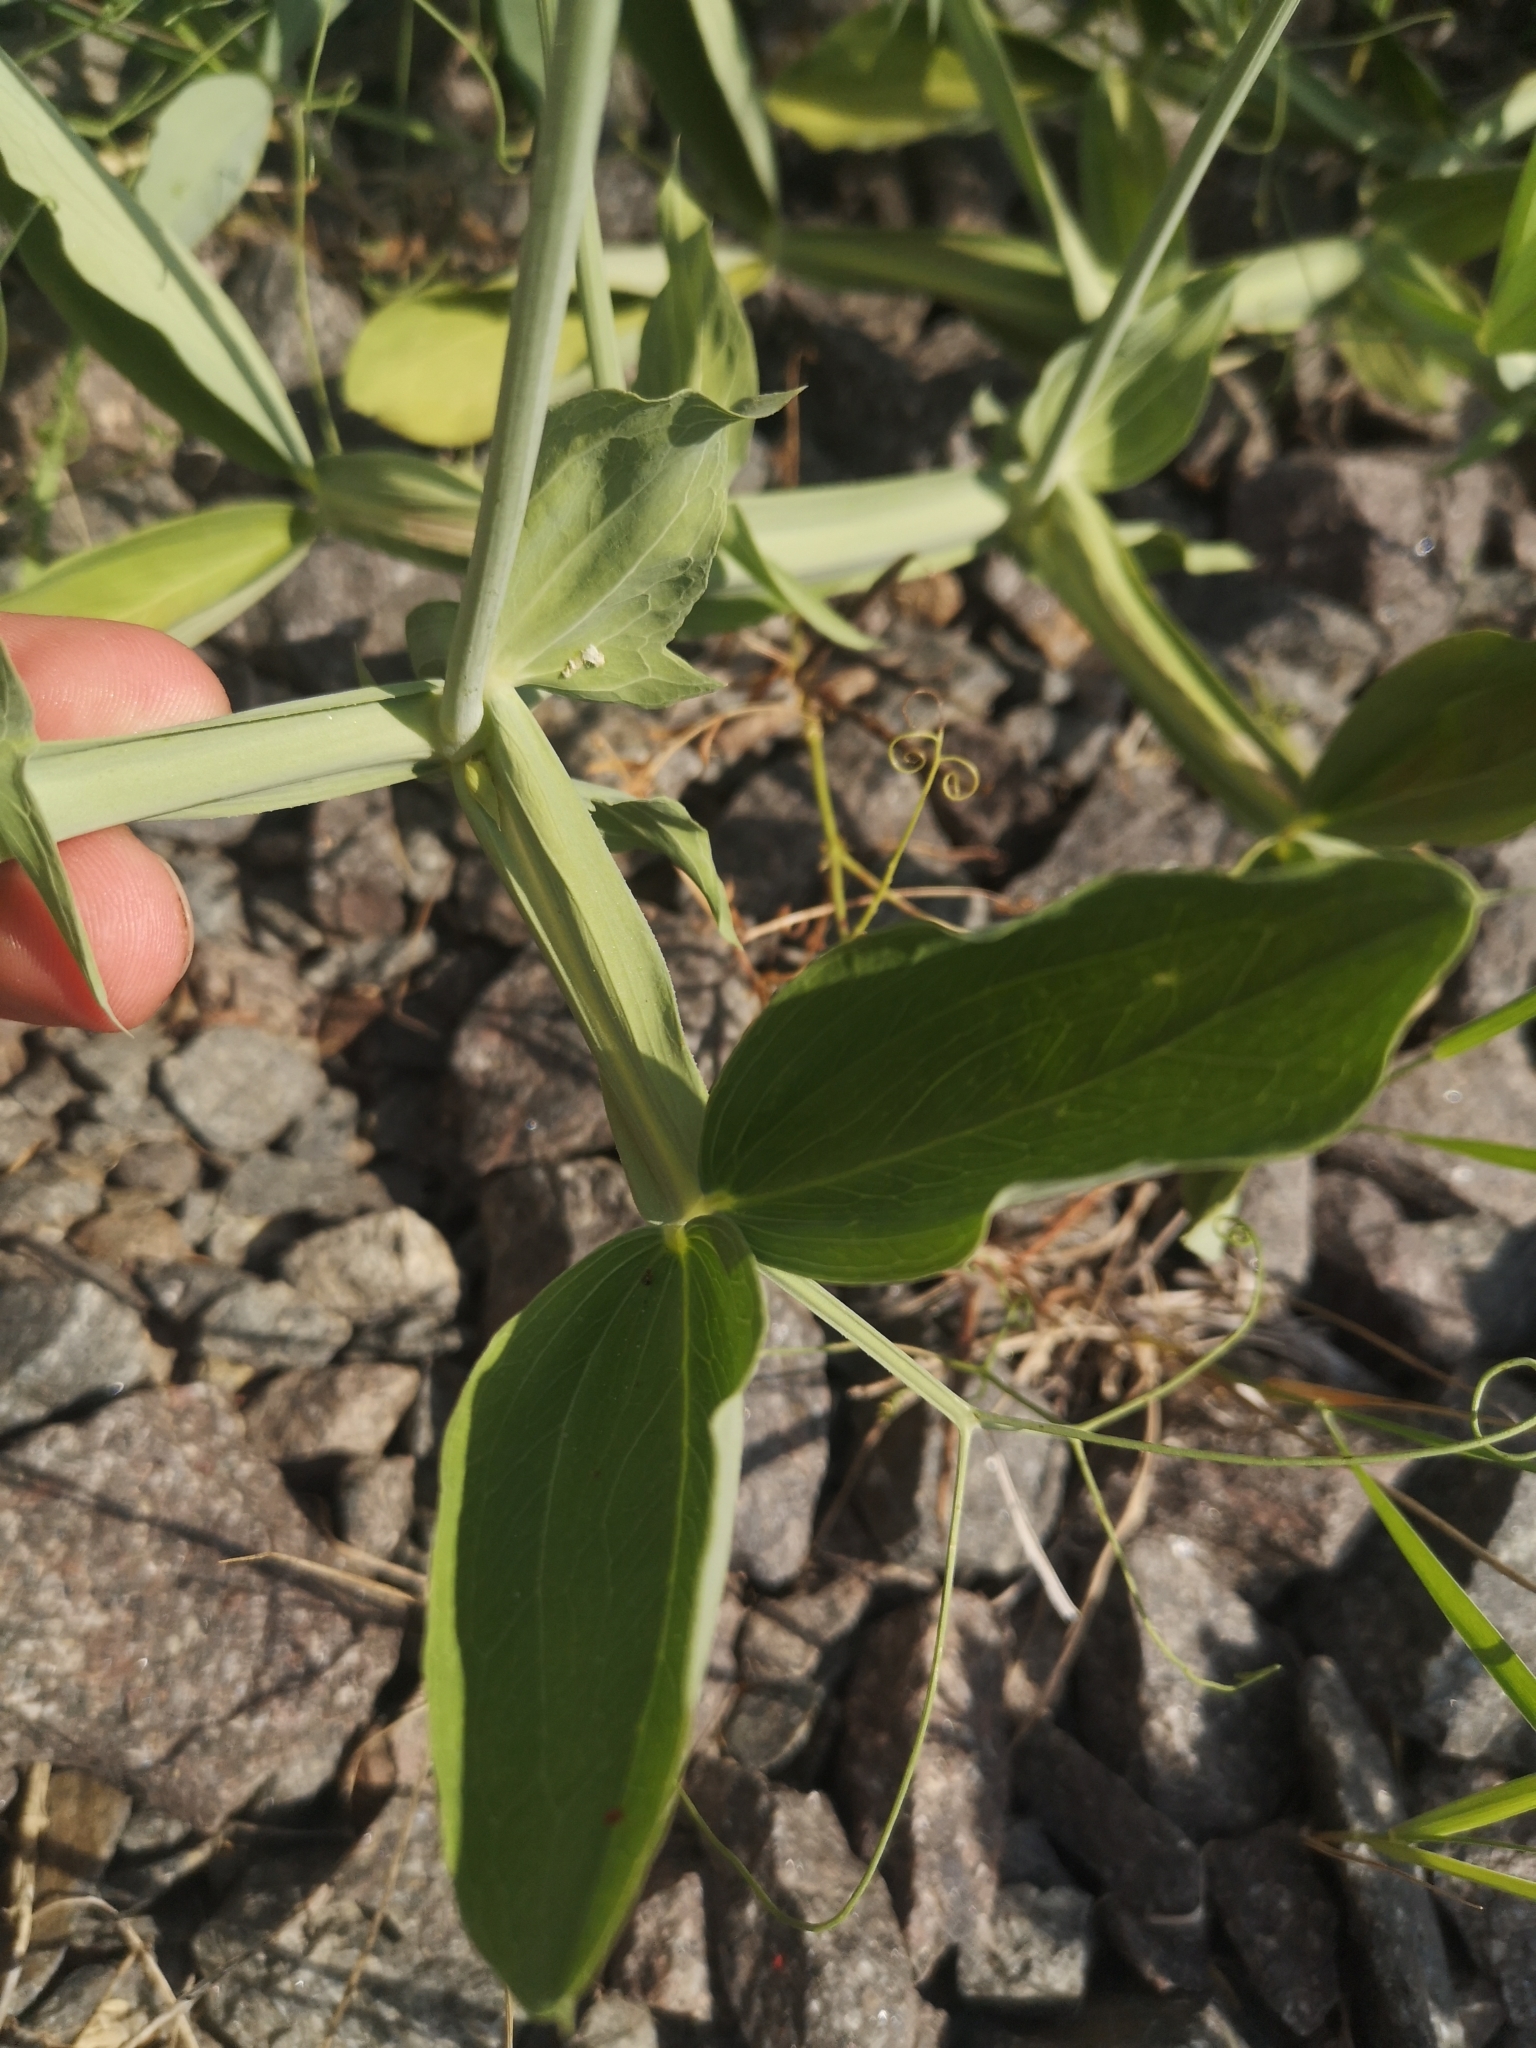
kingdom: Plantae
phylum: Tracheophyta
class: Magnoliopsida
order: Fabales
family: Fabaceae
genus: Lathyrus
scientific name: Lathyrus latifolius
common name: Perennial pea
